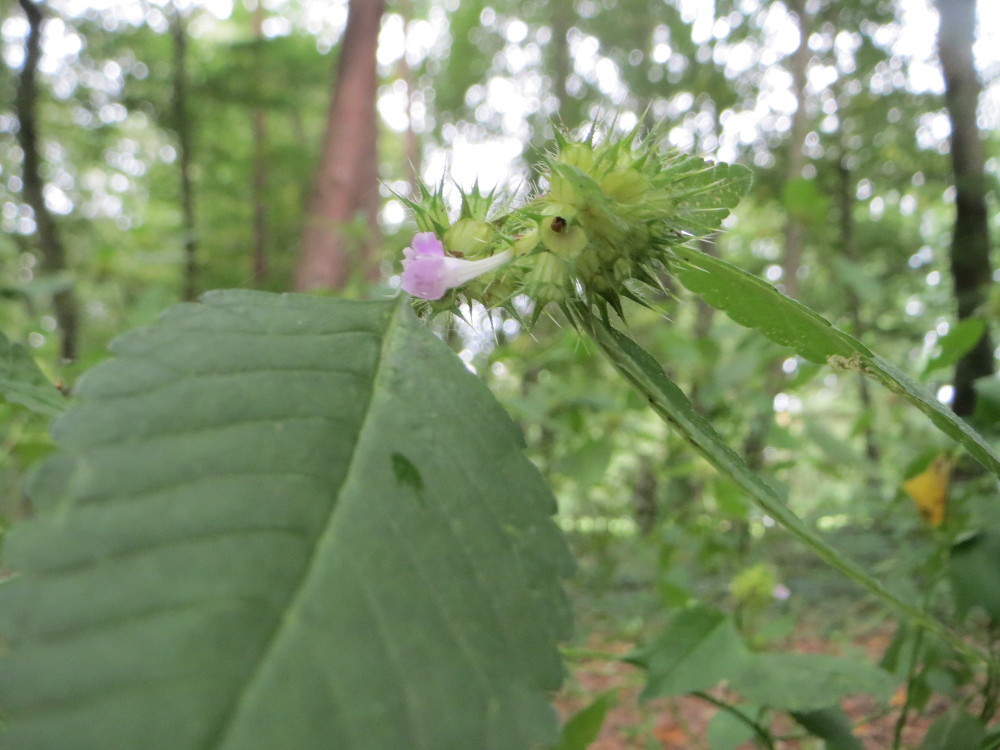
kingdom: Plantae
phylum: Tracheophyta
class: Magnoliopsida
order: Lamiales
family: Lamiaceae
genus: Galeopsis
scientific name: Galeopsis tetrahit
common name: Common hemp-nettle
